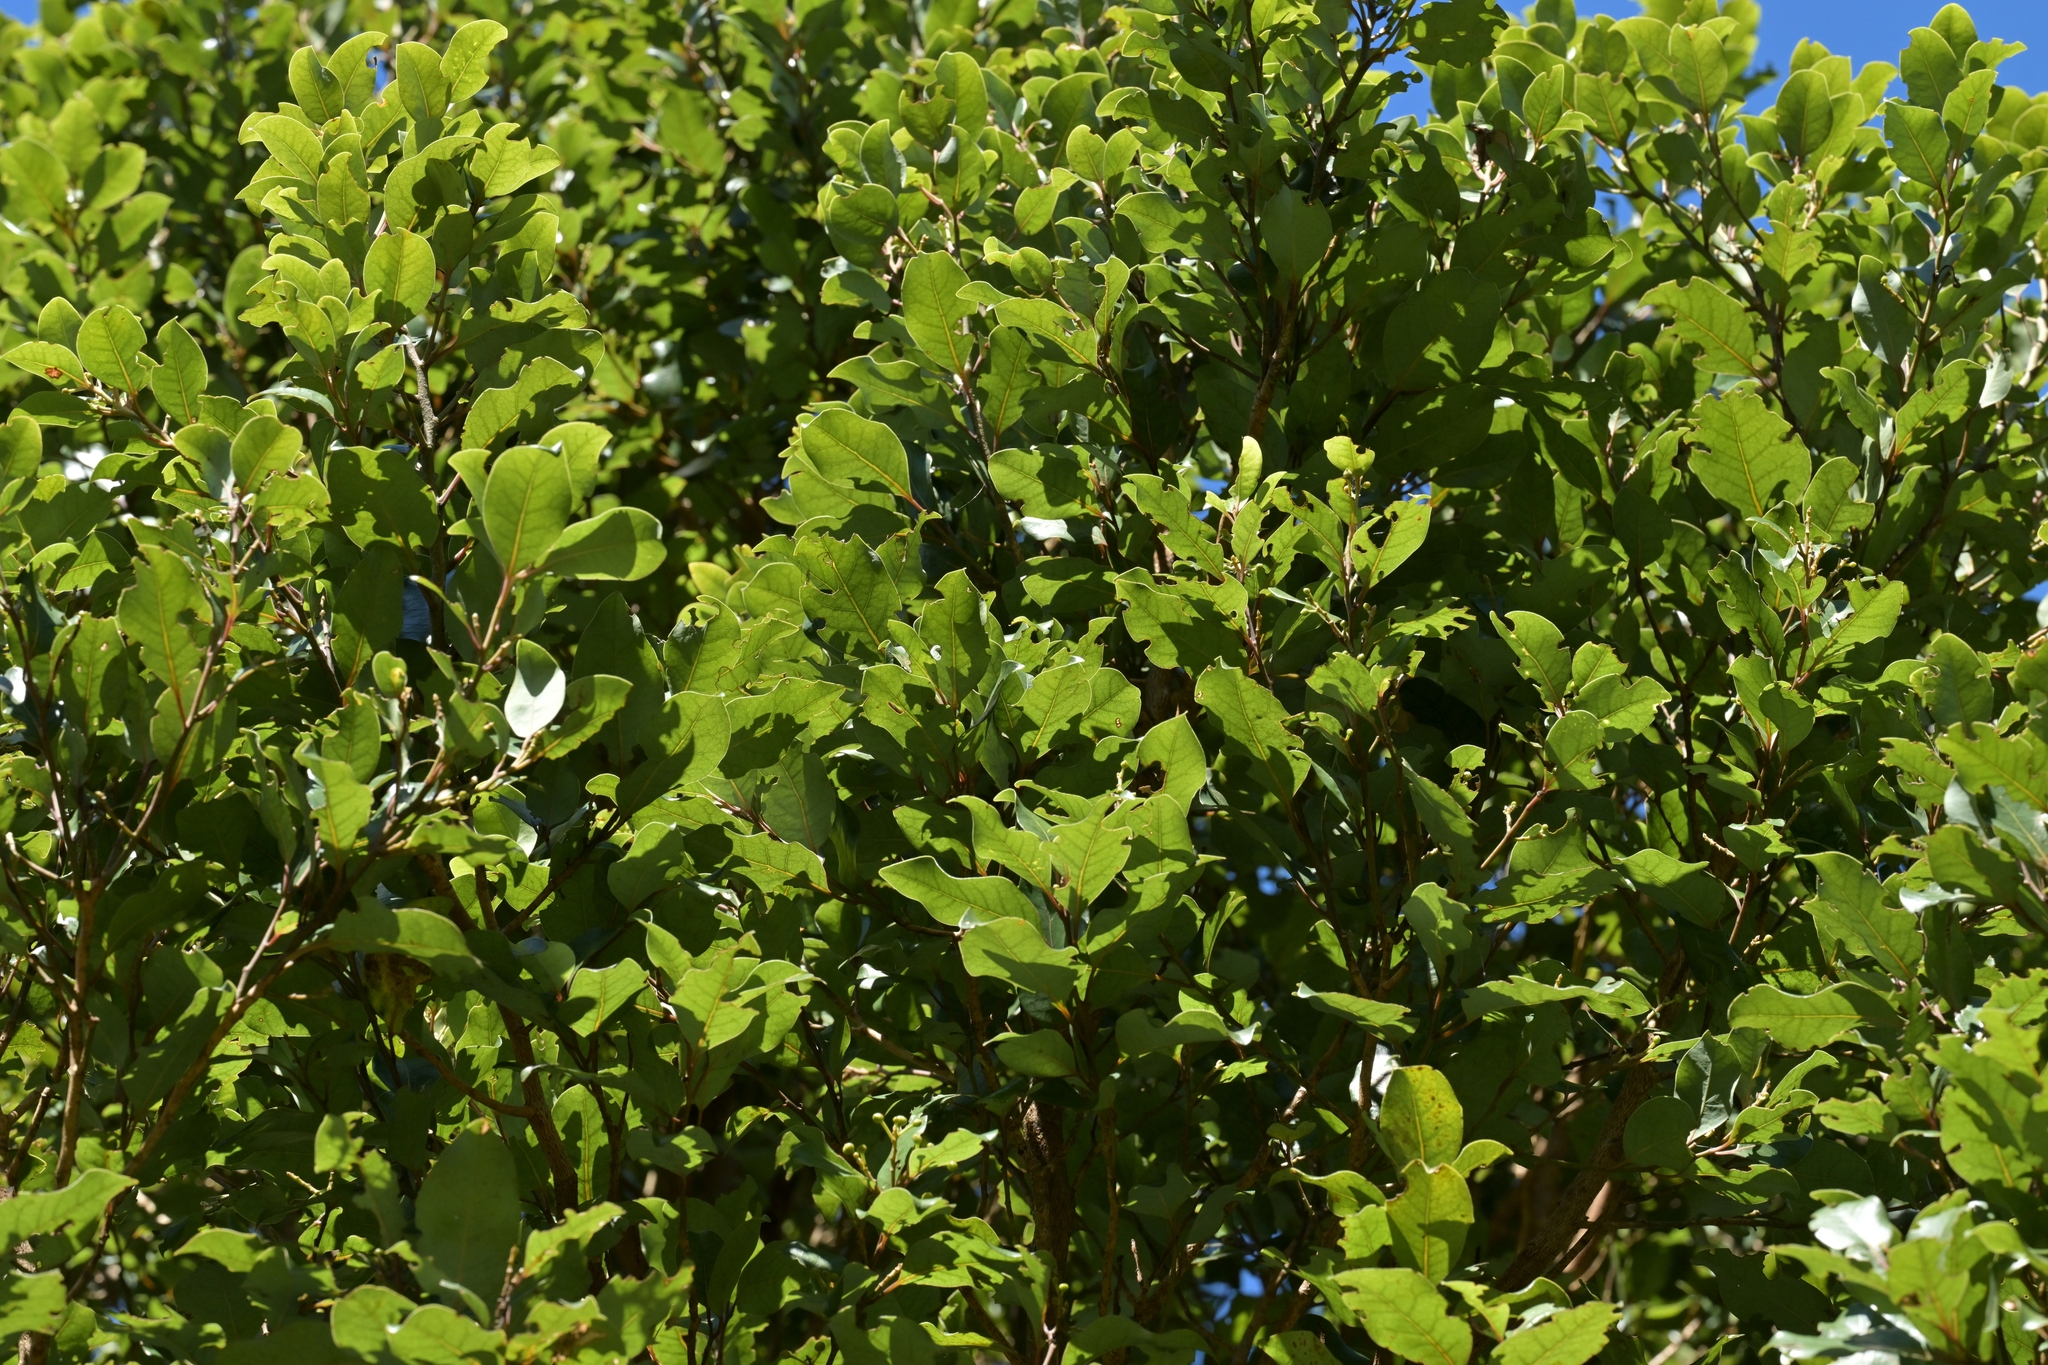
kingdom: Plantae
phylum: Tracheophyta
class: Magnoliopsida
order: Laurales
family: Lauraceae
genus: Litsea
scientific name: Litsea calicaris
